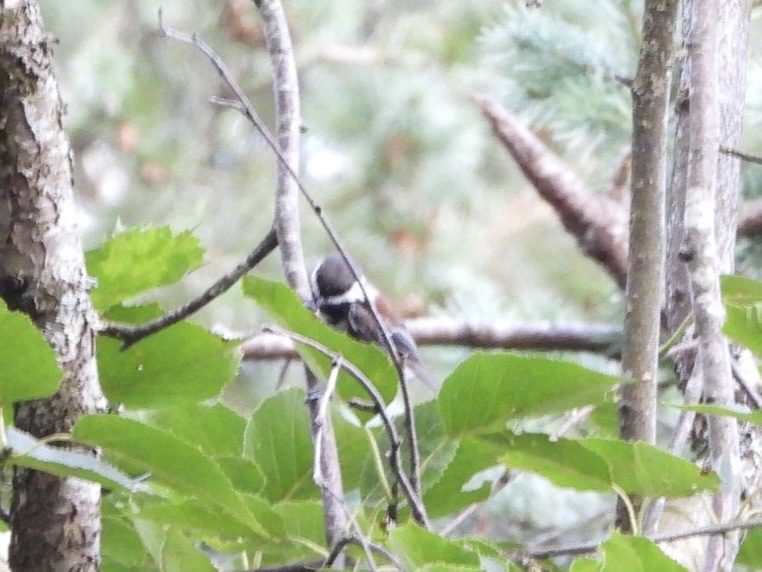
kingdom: Animalia
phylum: Chordata
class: Aves
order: Passeriformes
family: Paridae
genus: Poecile
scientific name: Poecile rufescens
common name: Chestnut-backed chickadee
